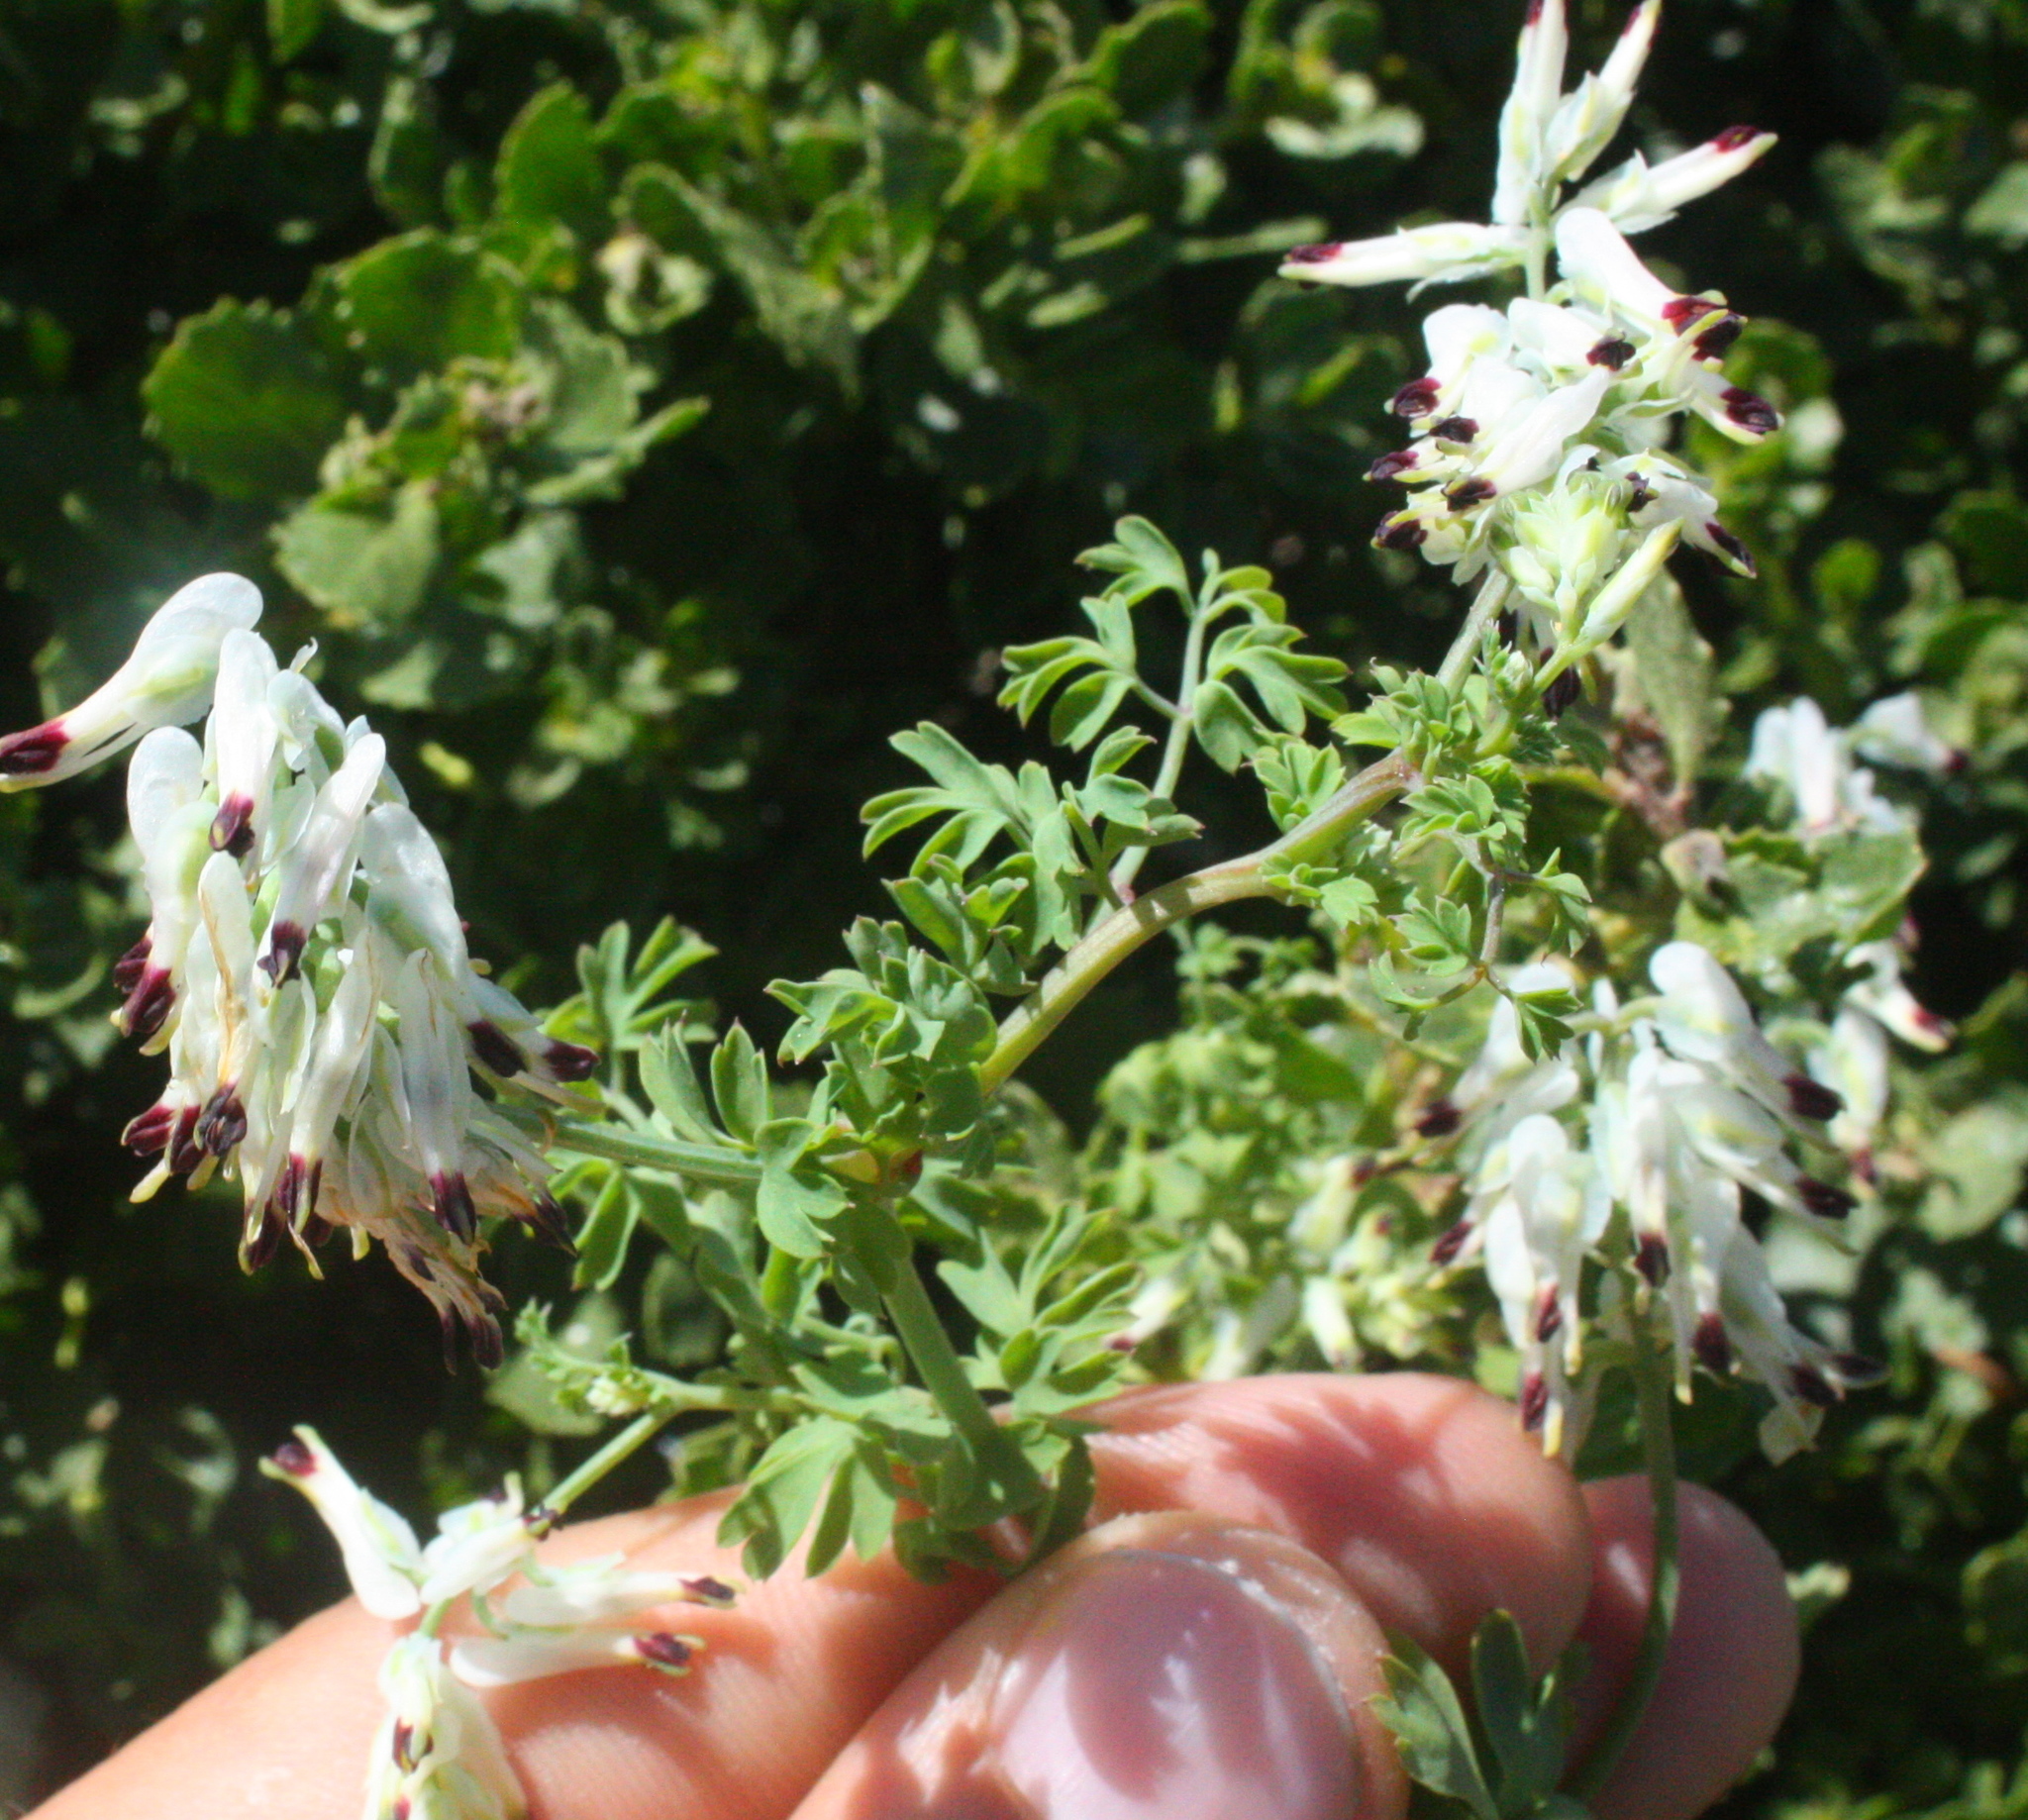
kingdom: Plantae
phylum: Tracheophyta
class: Magnoliopsida
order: Ranunculales
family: Papaveraceae
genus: Fumaria
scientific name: Fumaria capreolata
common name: White ramping-fumitory
